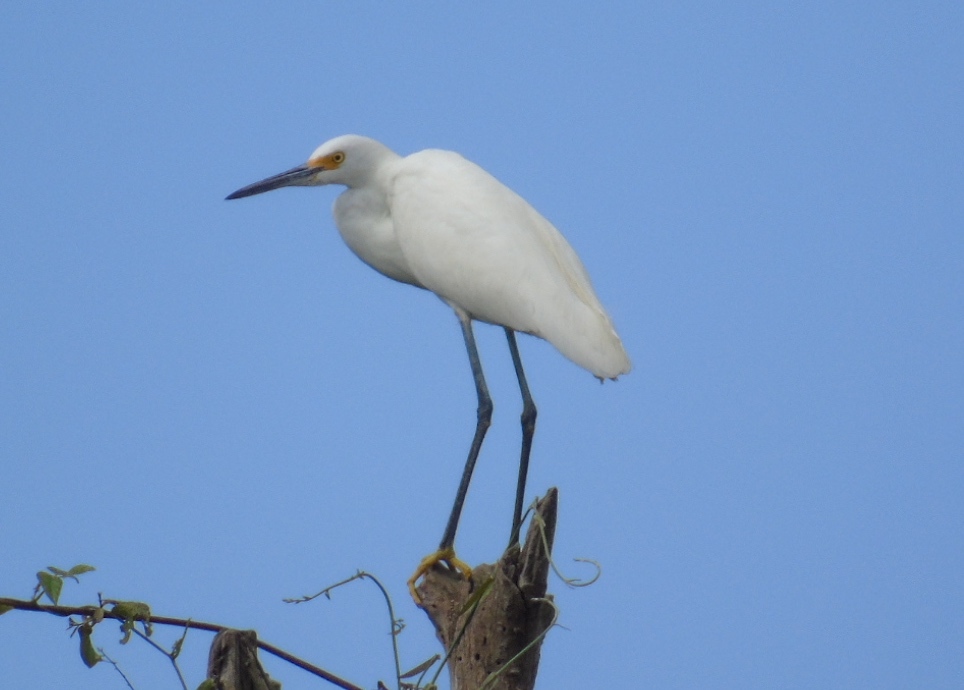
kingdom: Animalia
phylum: Chordata
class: Aves
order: Pelecaniformes
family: Ardeidae
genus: Egretta
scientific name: Egretta thula
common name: Snowy egret
